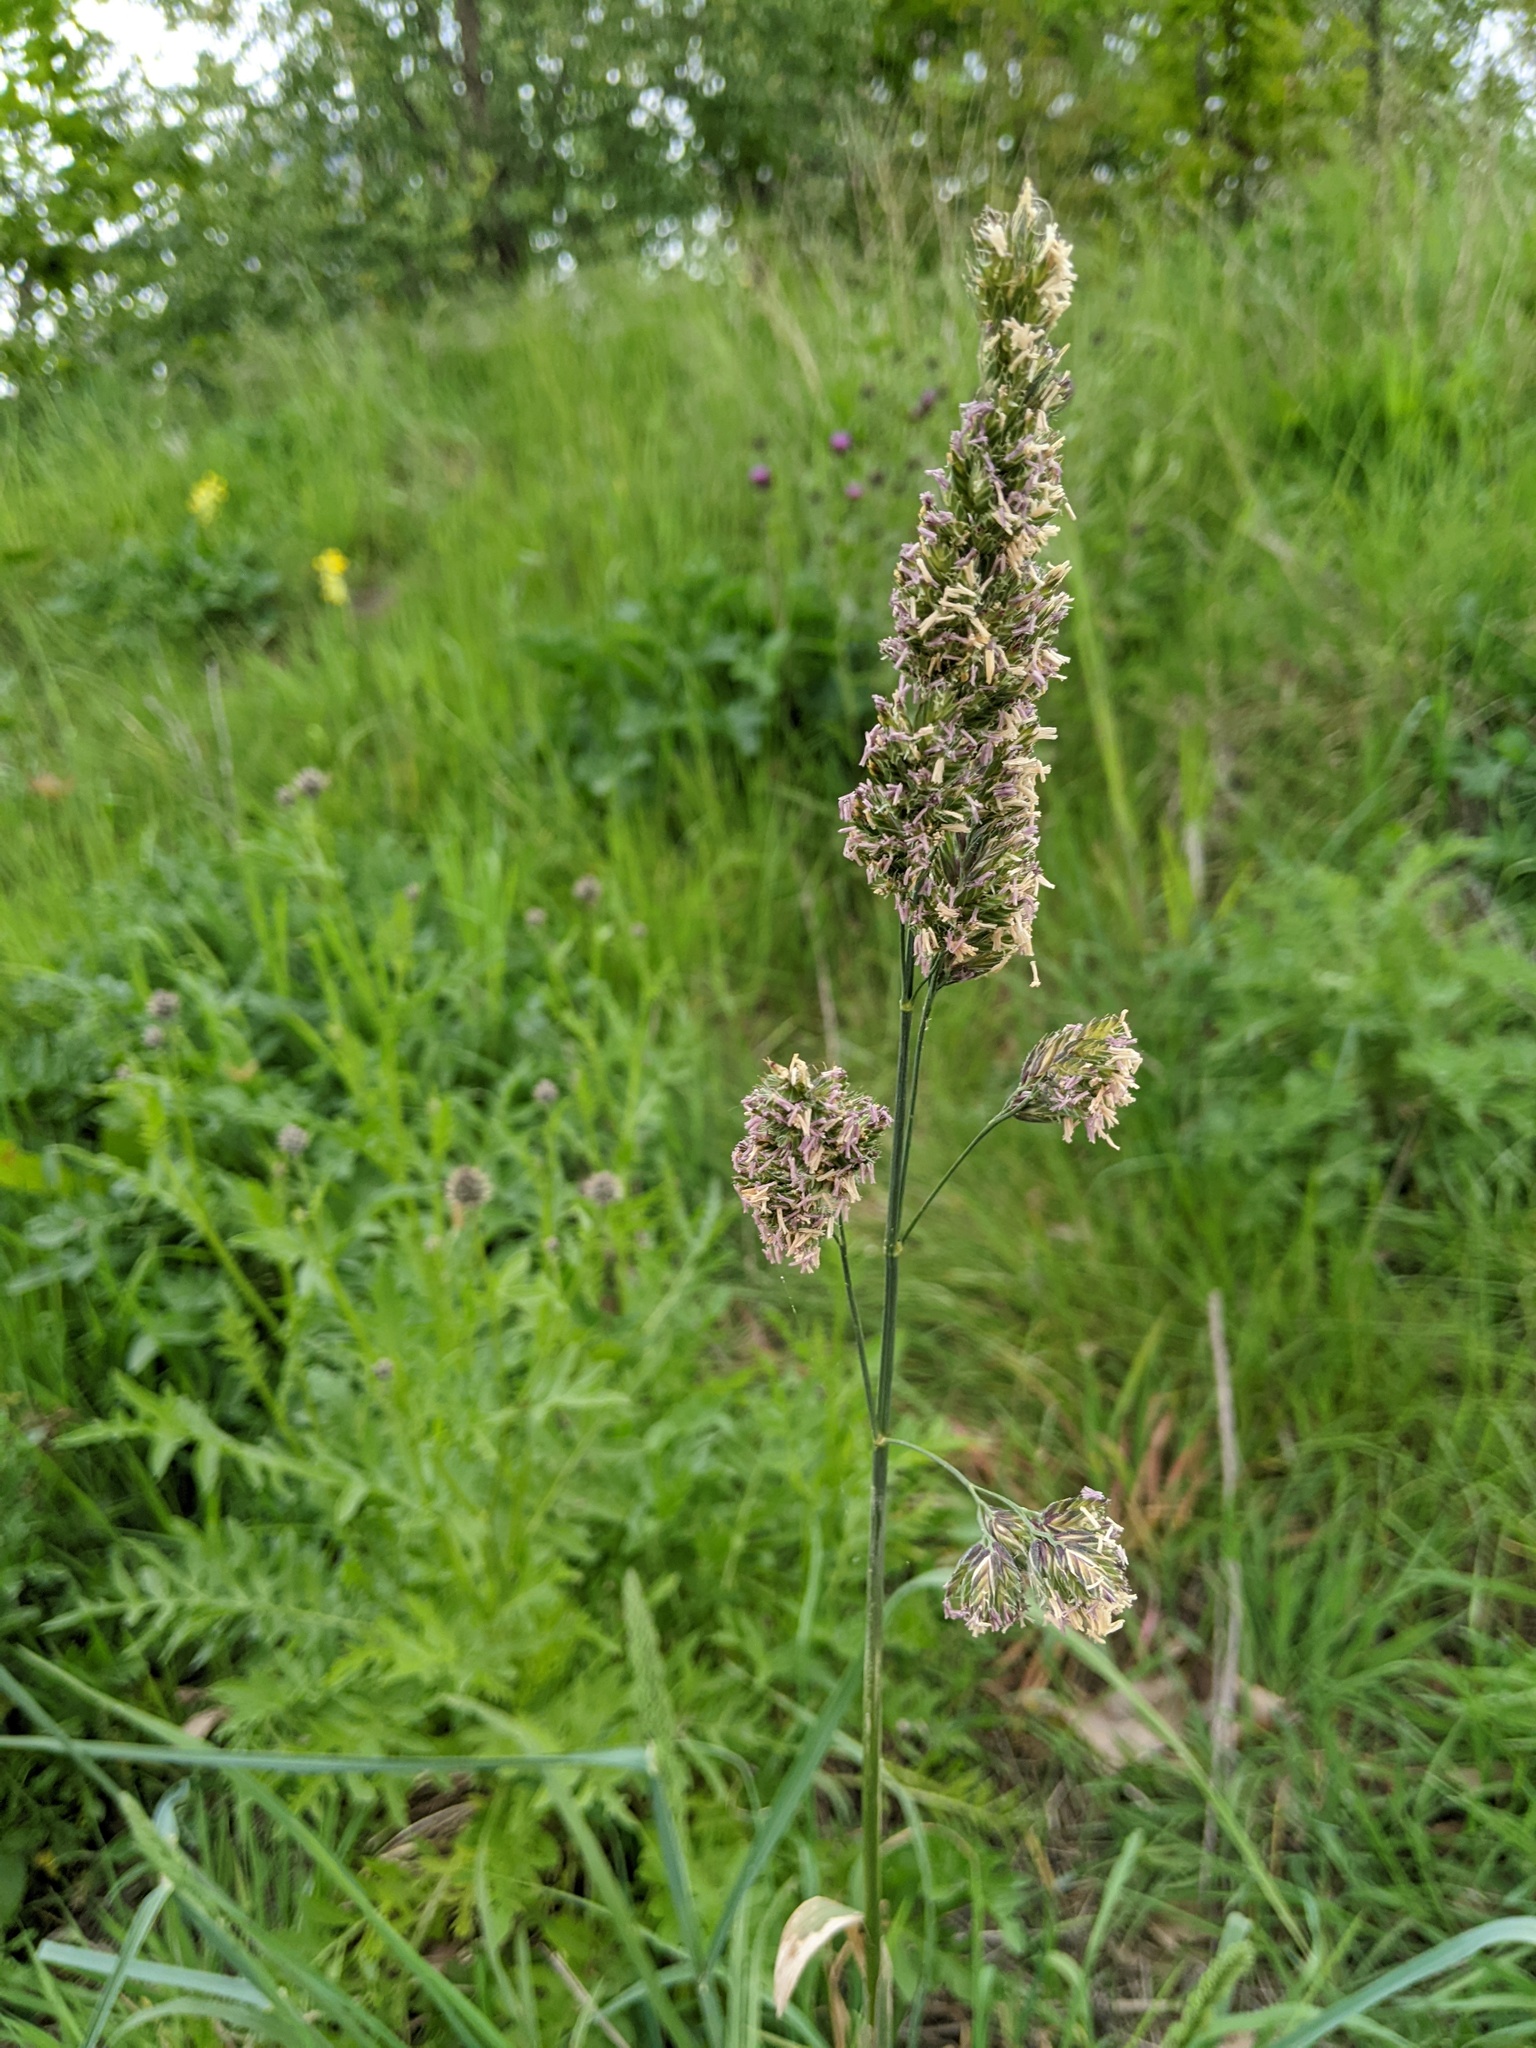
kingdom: Plantae
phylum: Tracheophyta
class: Liliopsida
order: Poales
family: Poaceae
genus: Dactylis
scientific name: Dactylis glomerata
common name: Orchardgrass
